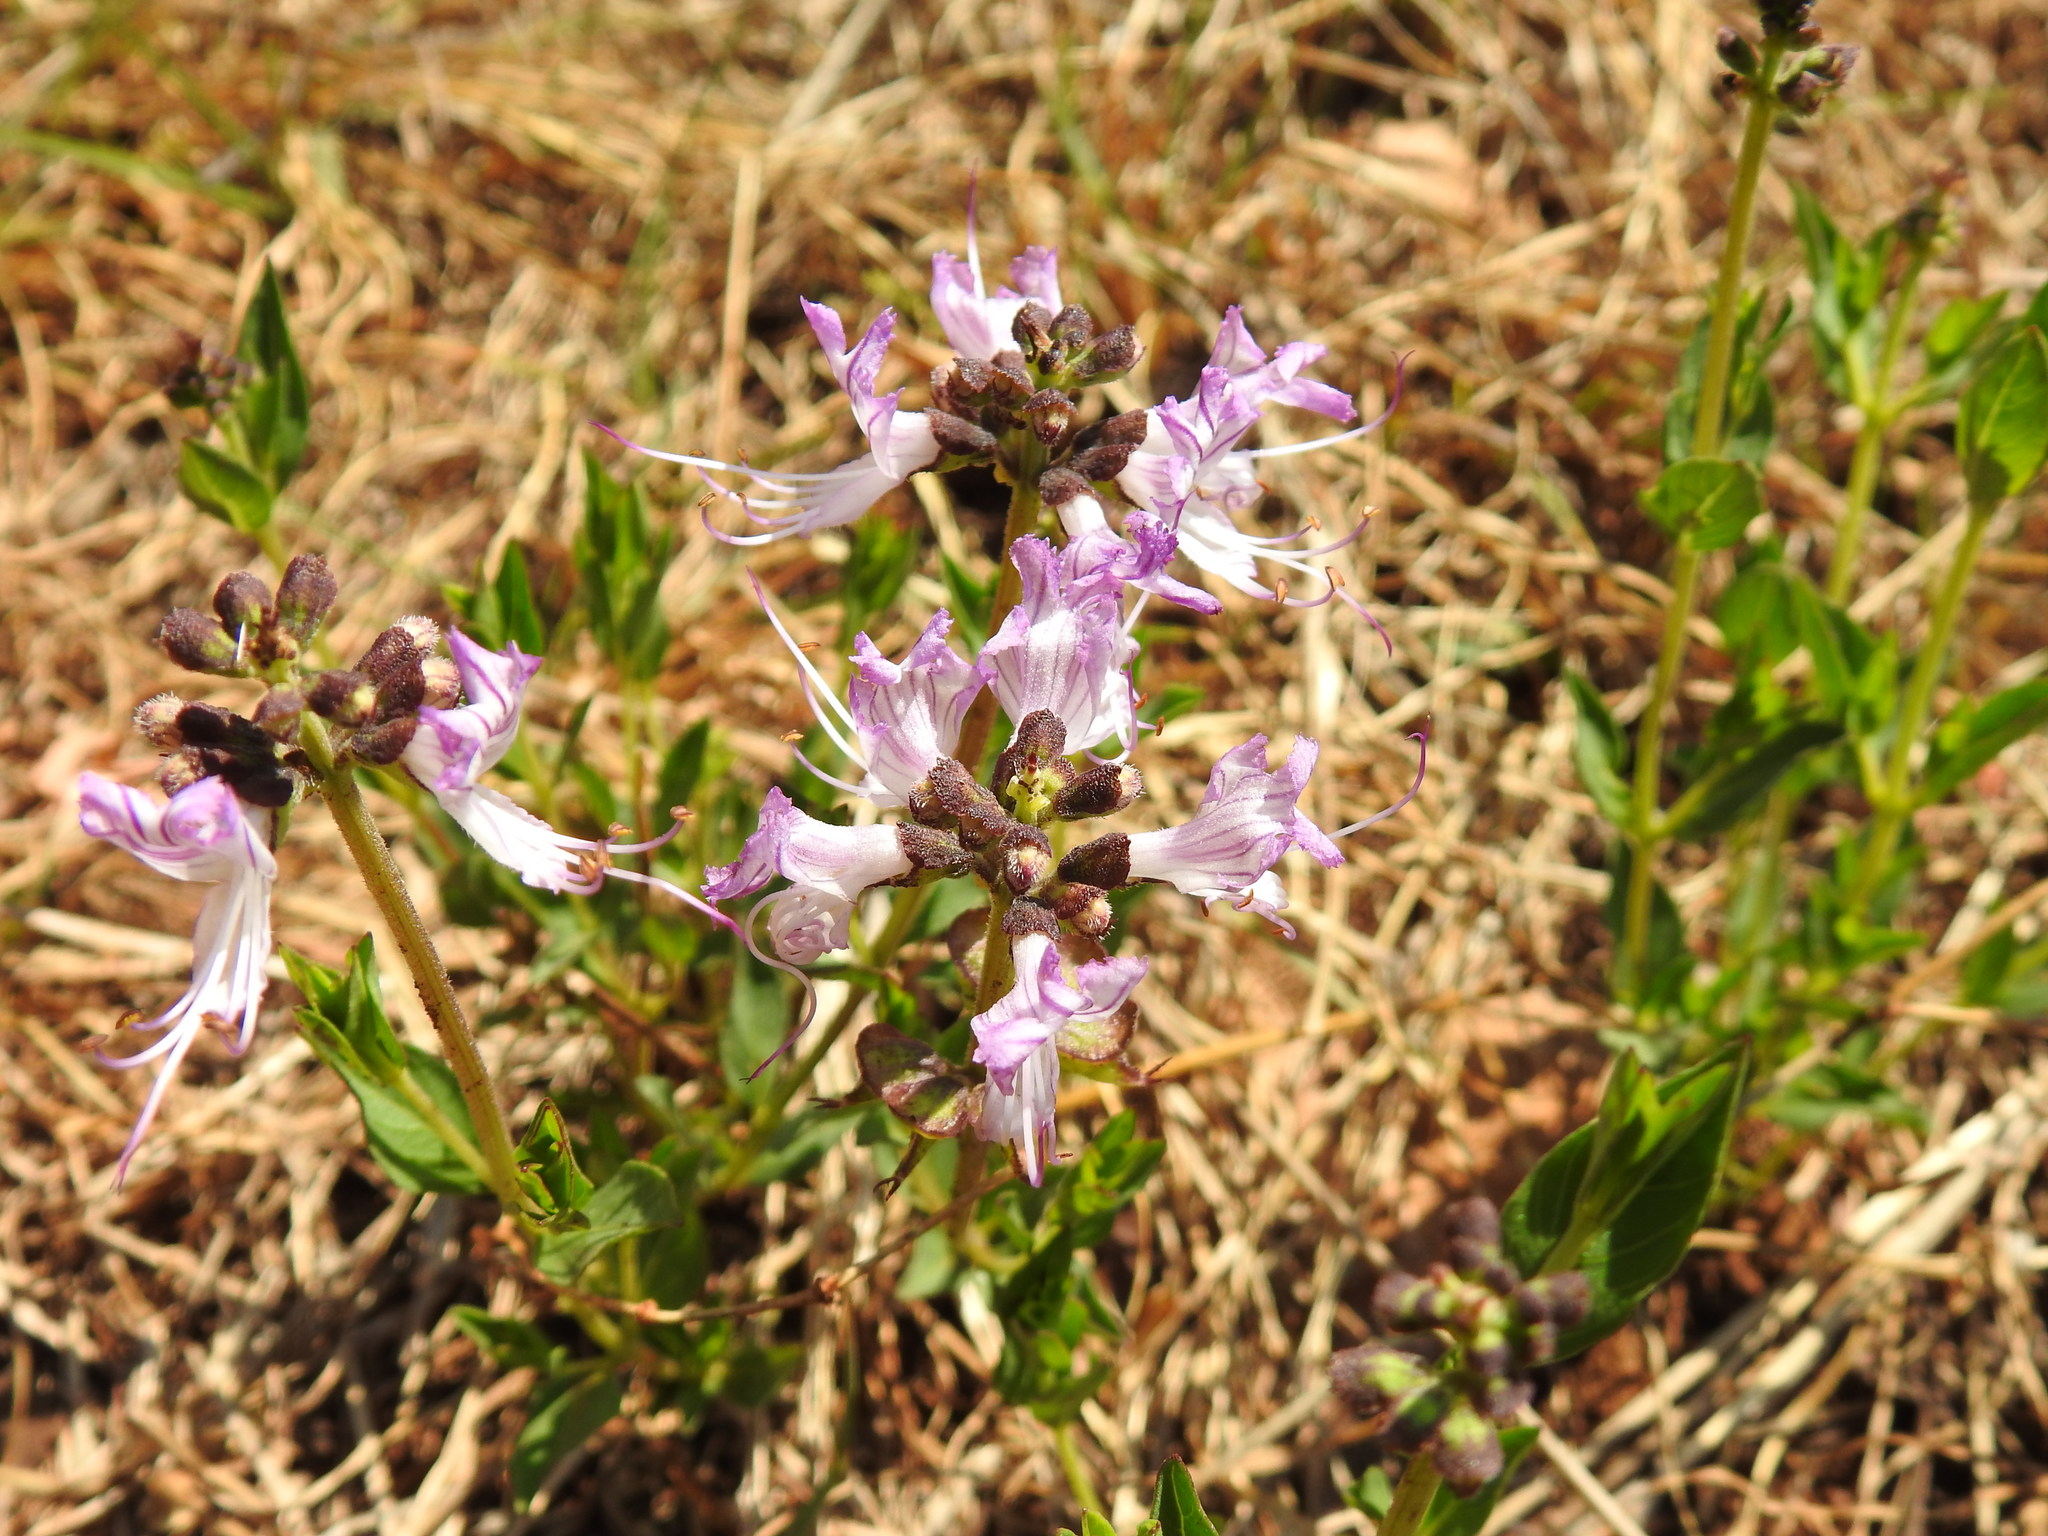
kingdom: Plantae
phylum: Tracheophyta
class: Magnoliopsida
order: Lamiales
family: Lamiaceae
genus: Ocimum
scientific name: Ocimum obovatum
